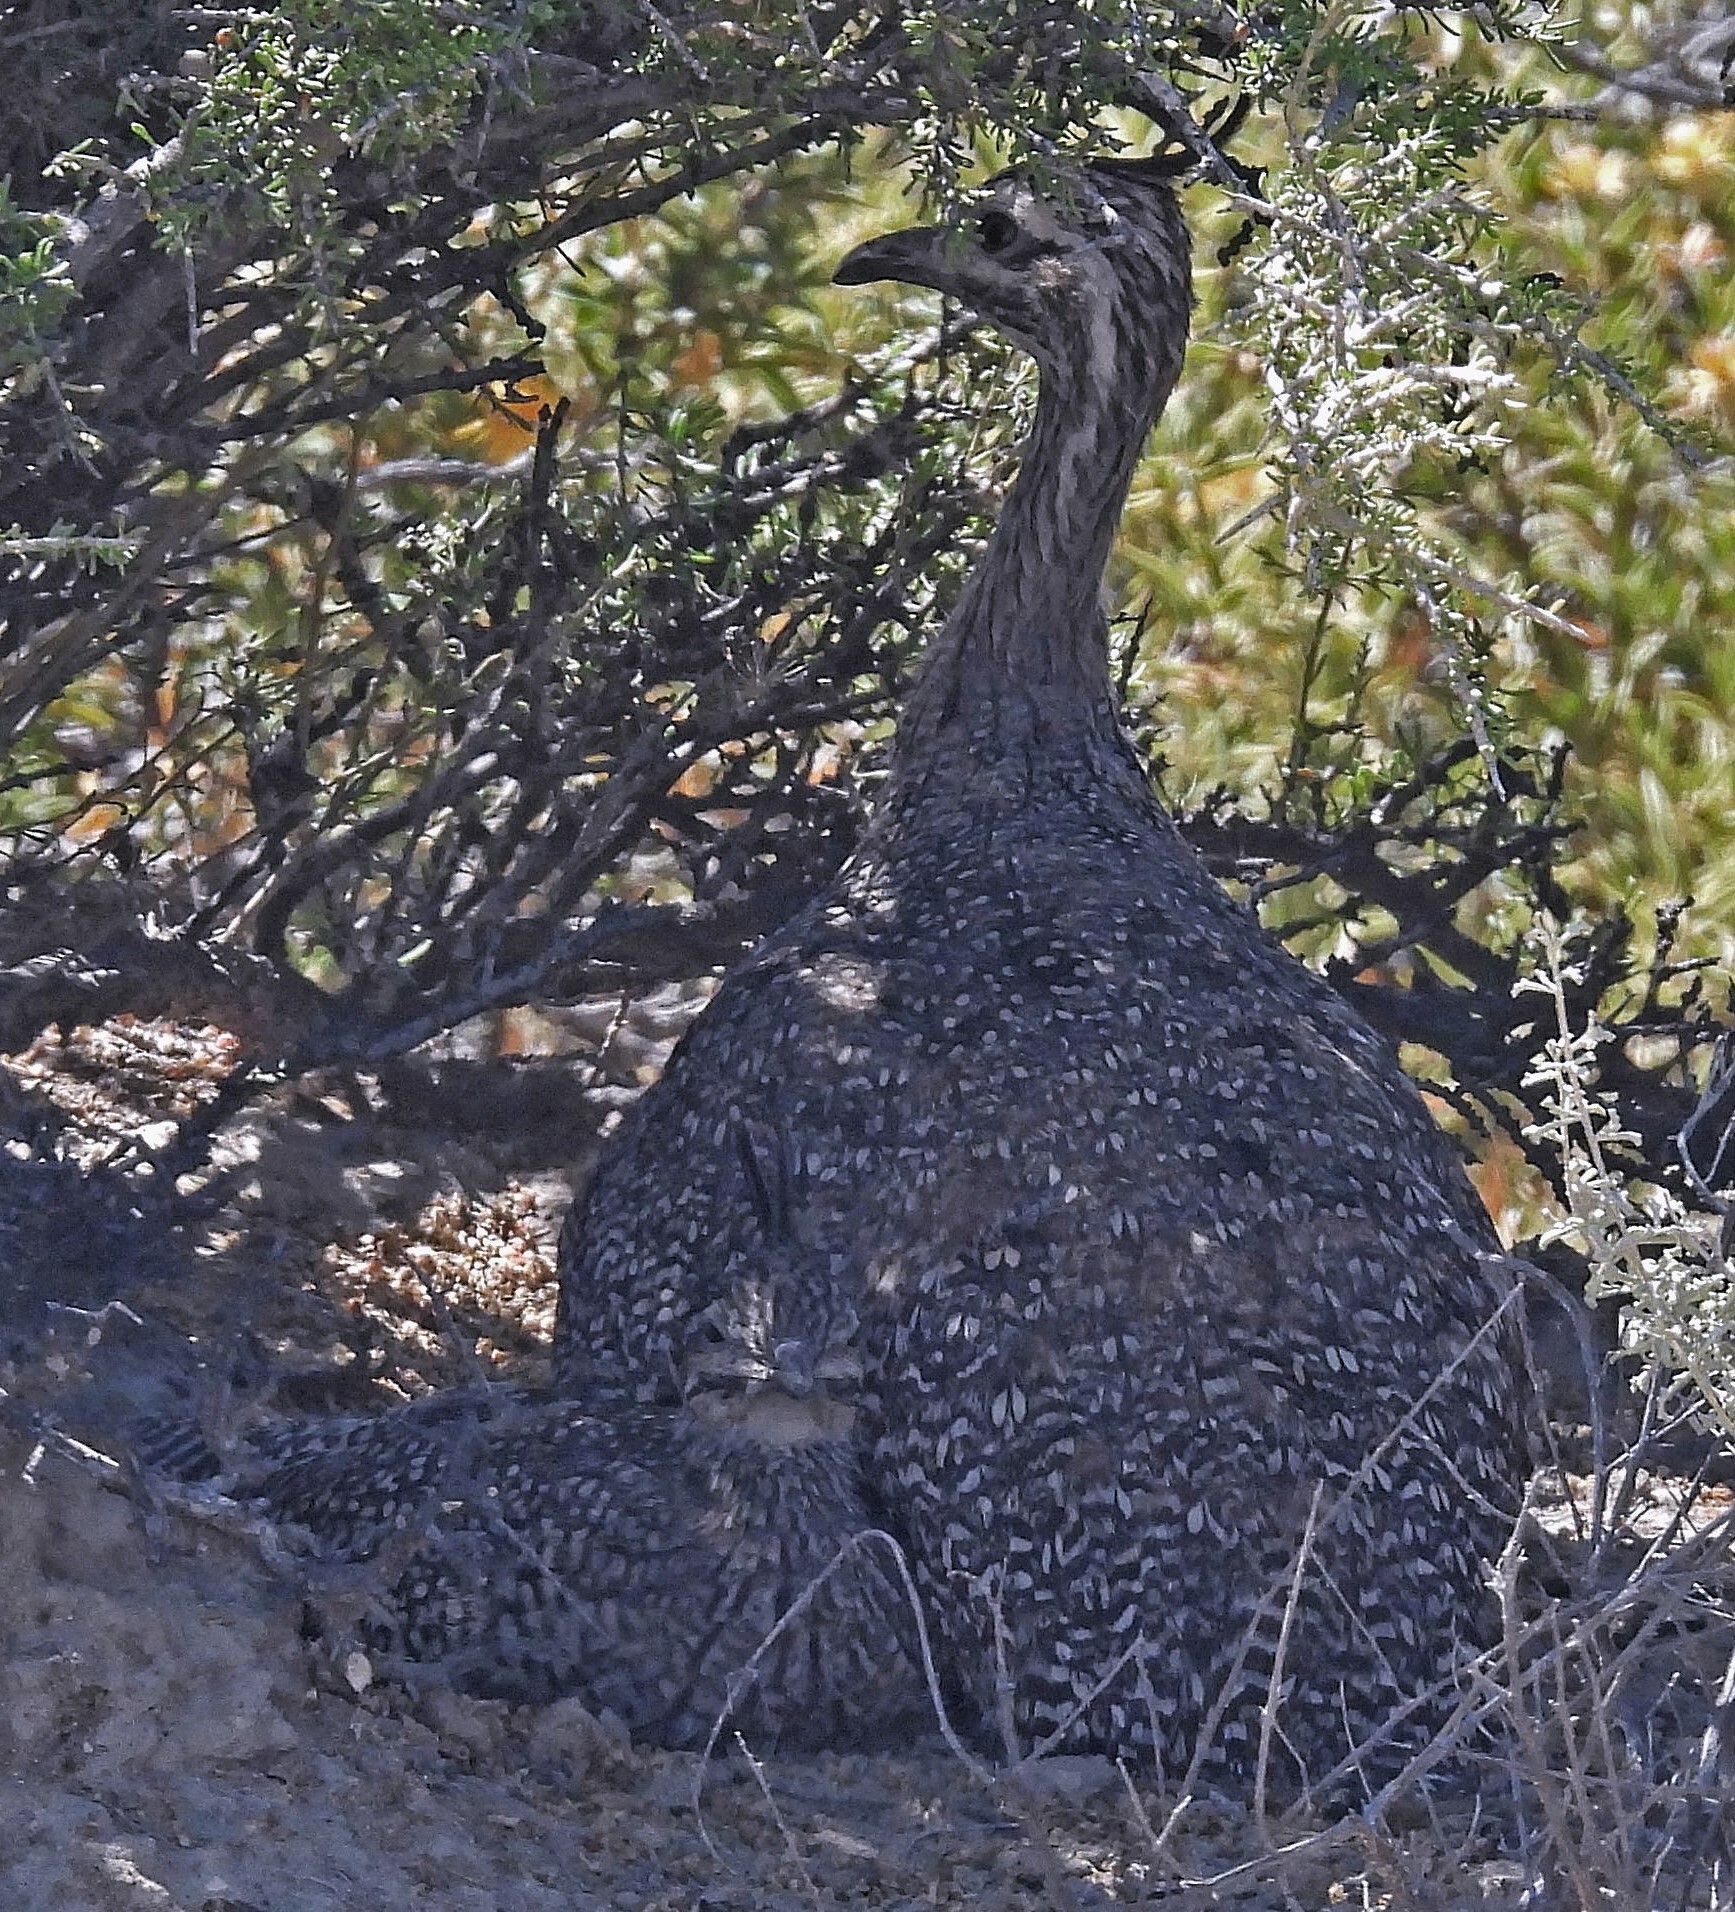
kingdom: Animalia
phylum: Chordata
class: Aves
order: Tinamiformes
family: Tinamidae
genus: Eudromia
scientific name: Eudromia elegans
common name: Elegant crested tinamou
